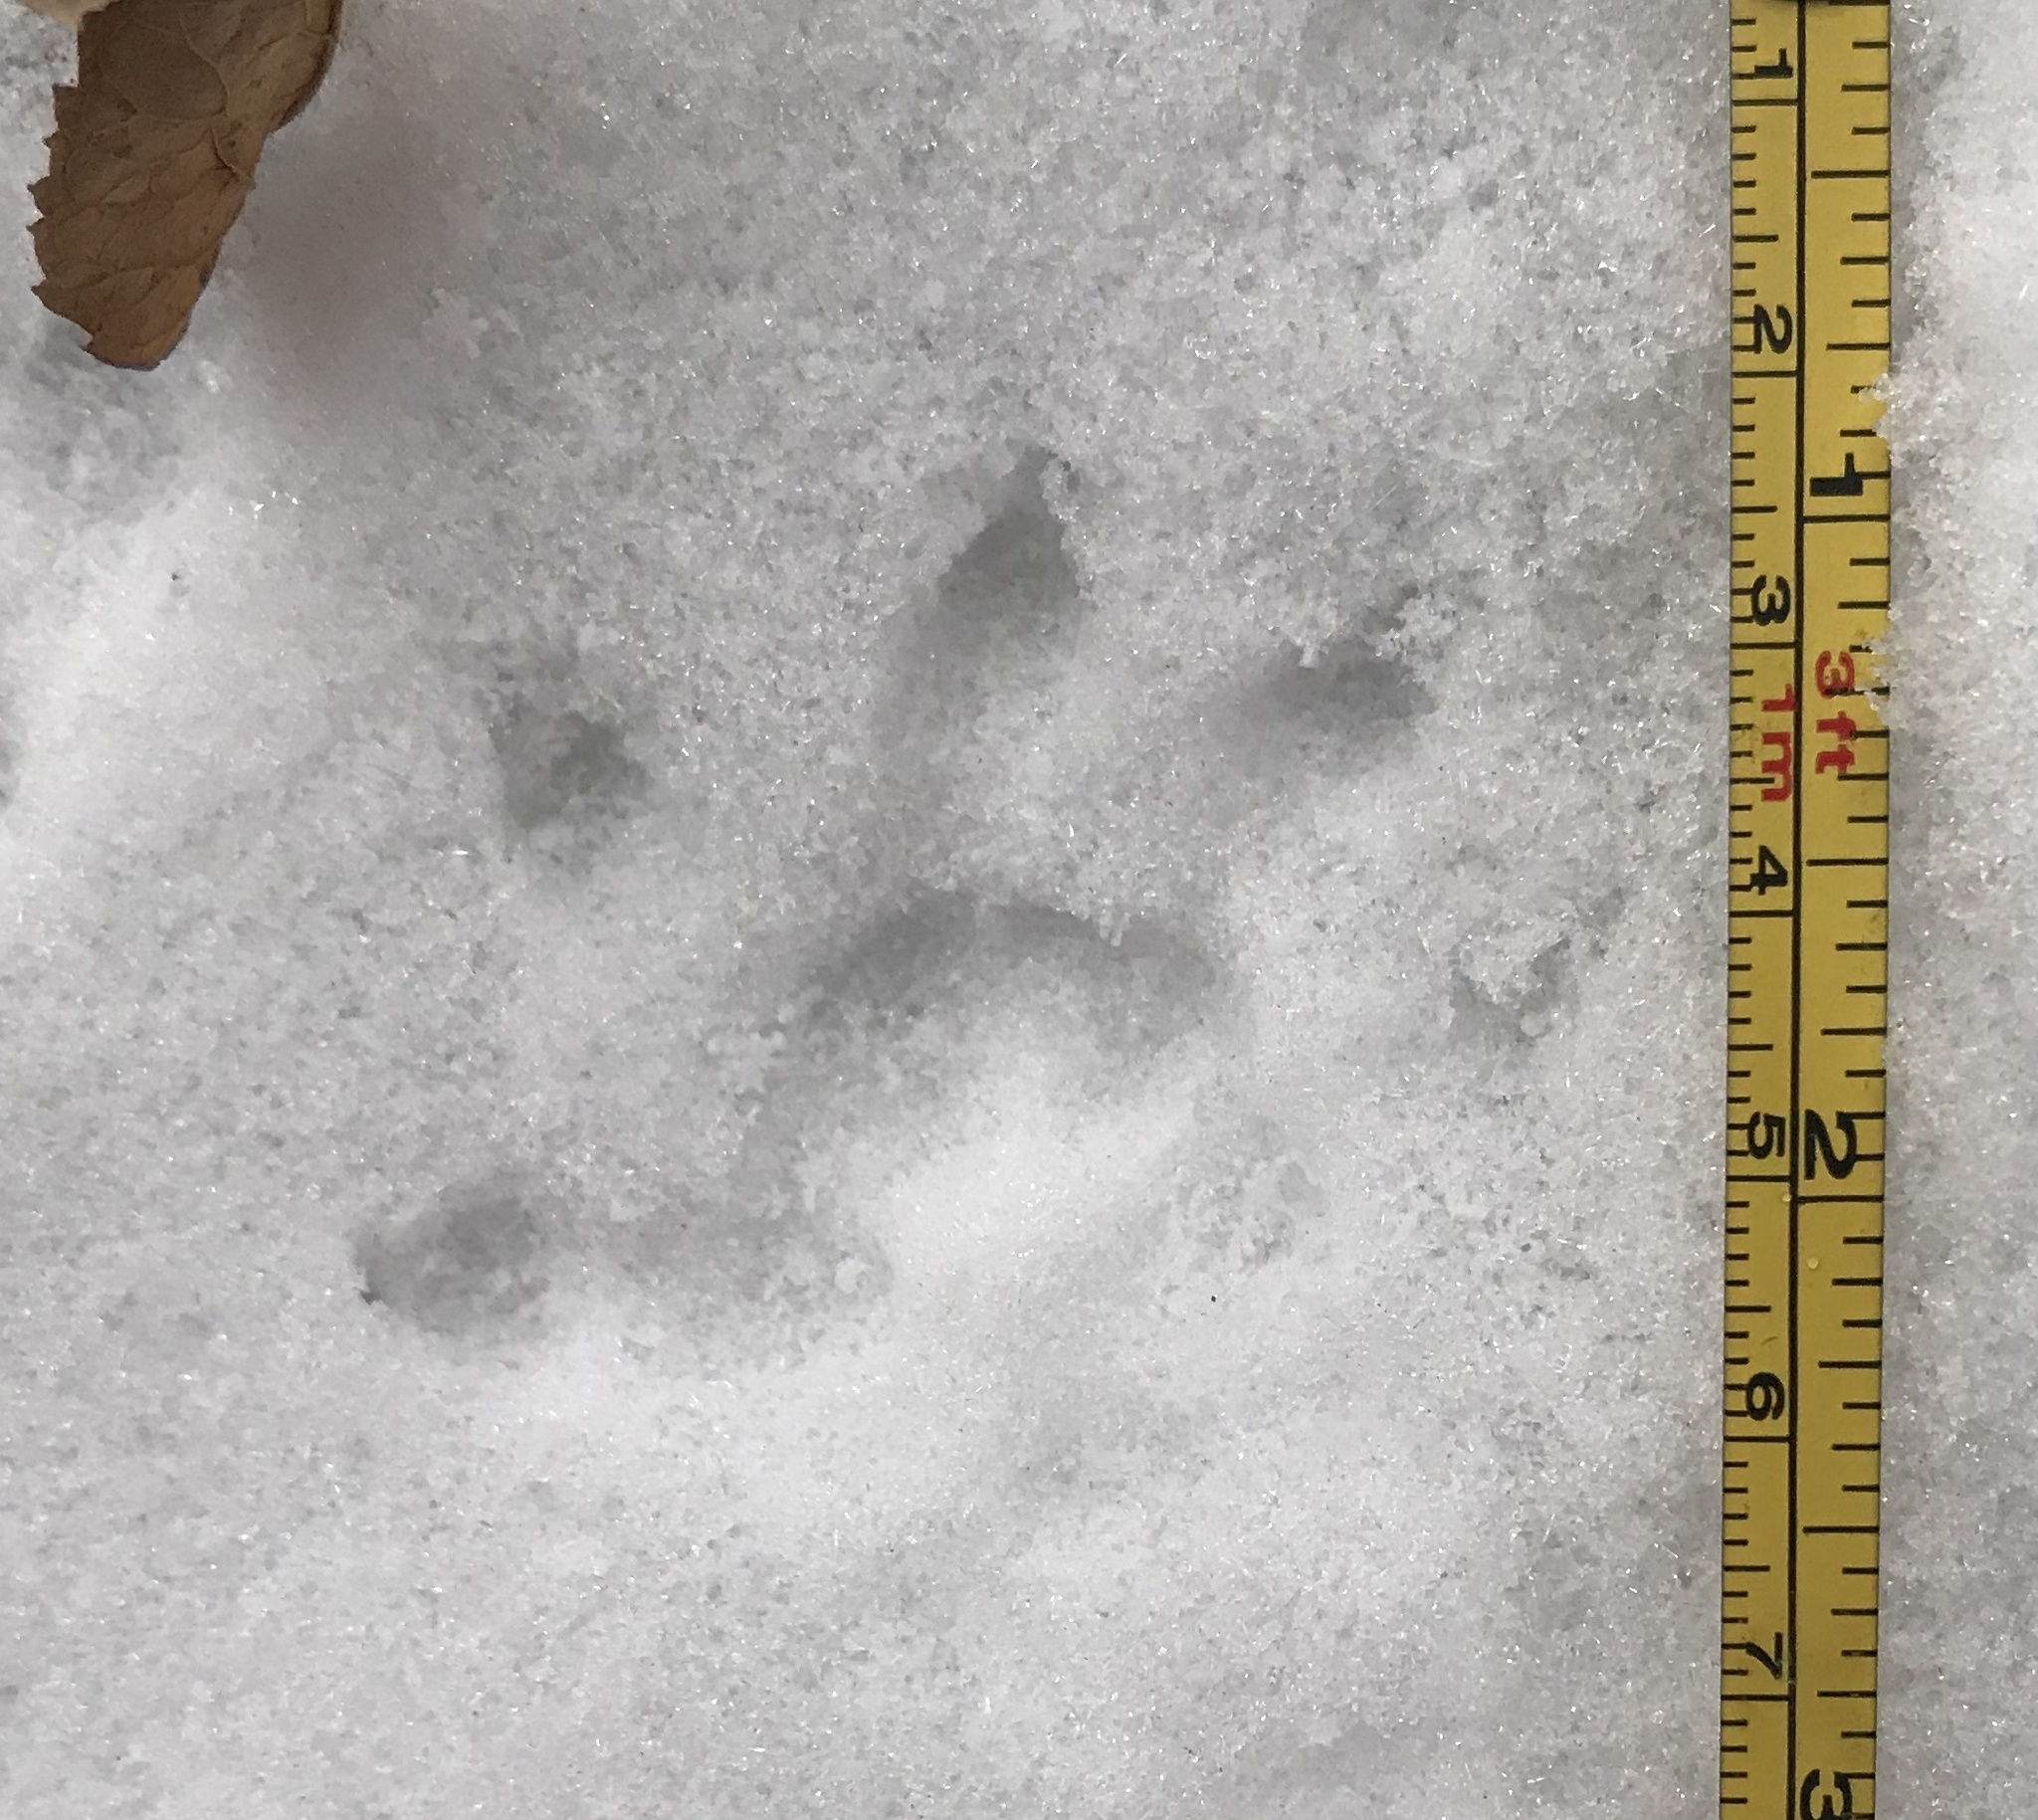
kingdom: Animalia
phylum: Chordata
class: Mammalia
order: Didelphimorphia
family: Didelphidae
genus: Didelphis
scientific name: Didelphis virginiana
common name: Virginia opossum
